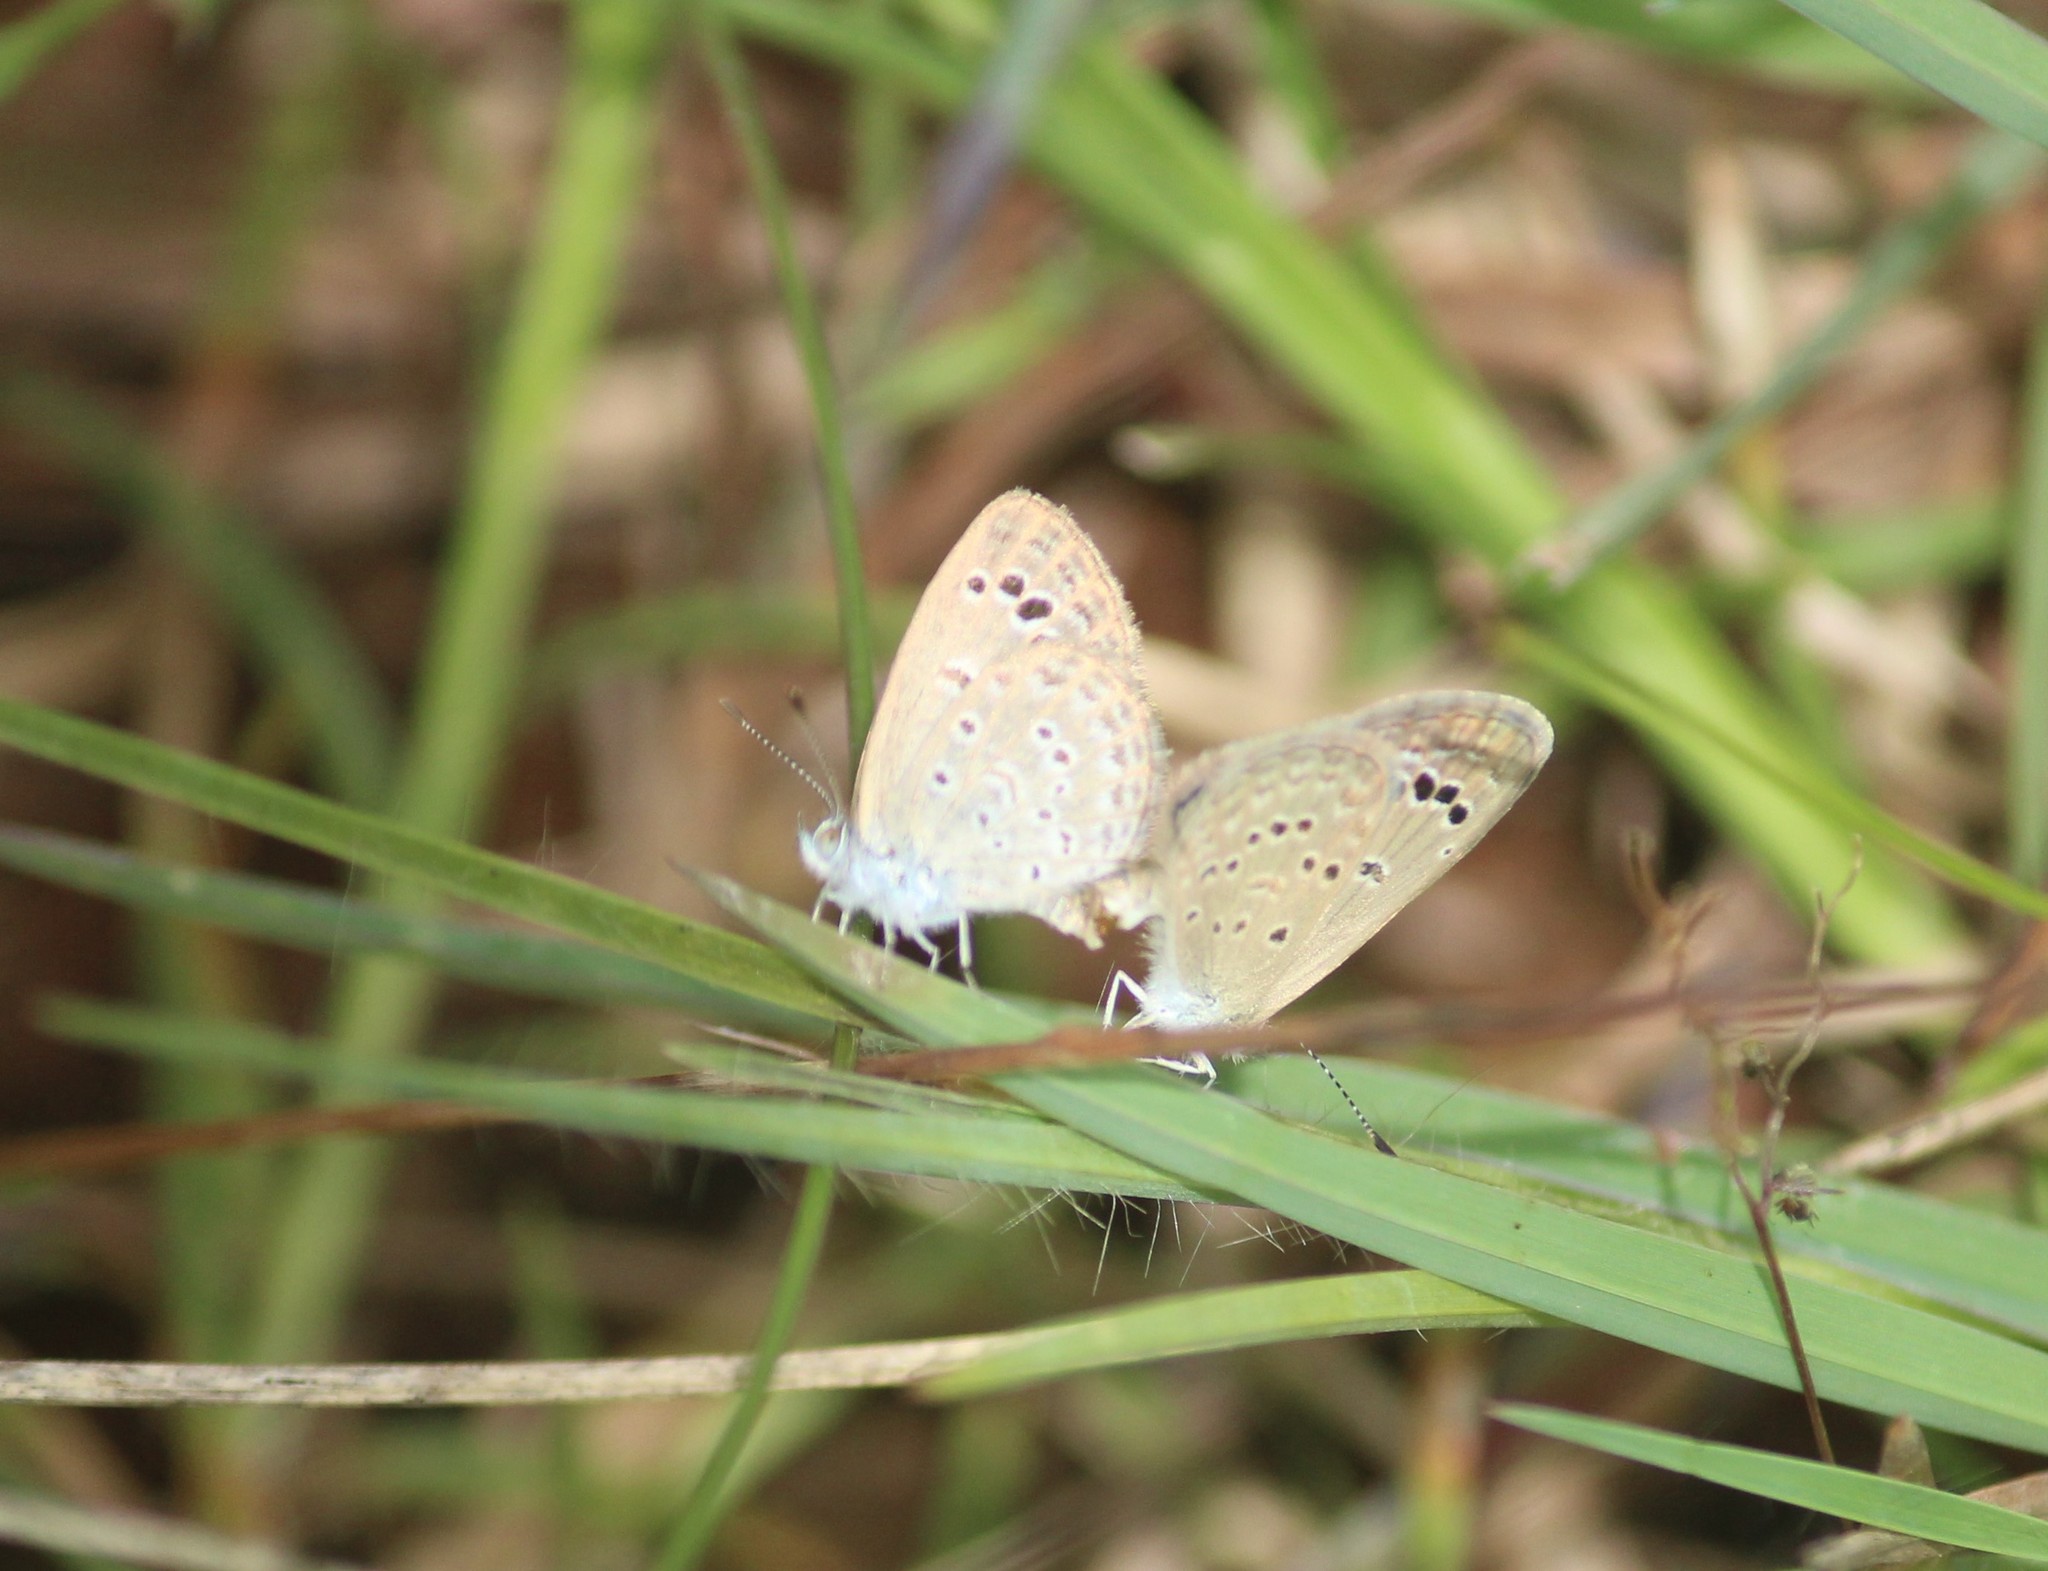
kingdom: Animalia
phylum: Arthropoda
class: Insecta
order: Lepidoptera
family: Lycaenidae
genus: Zizina
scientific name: Zizina otis
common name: Lesser grass blue
